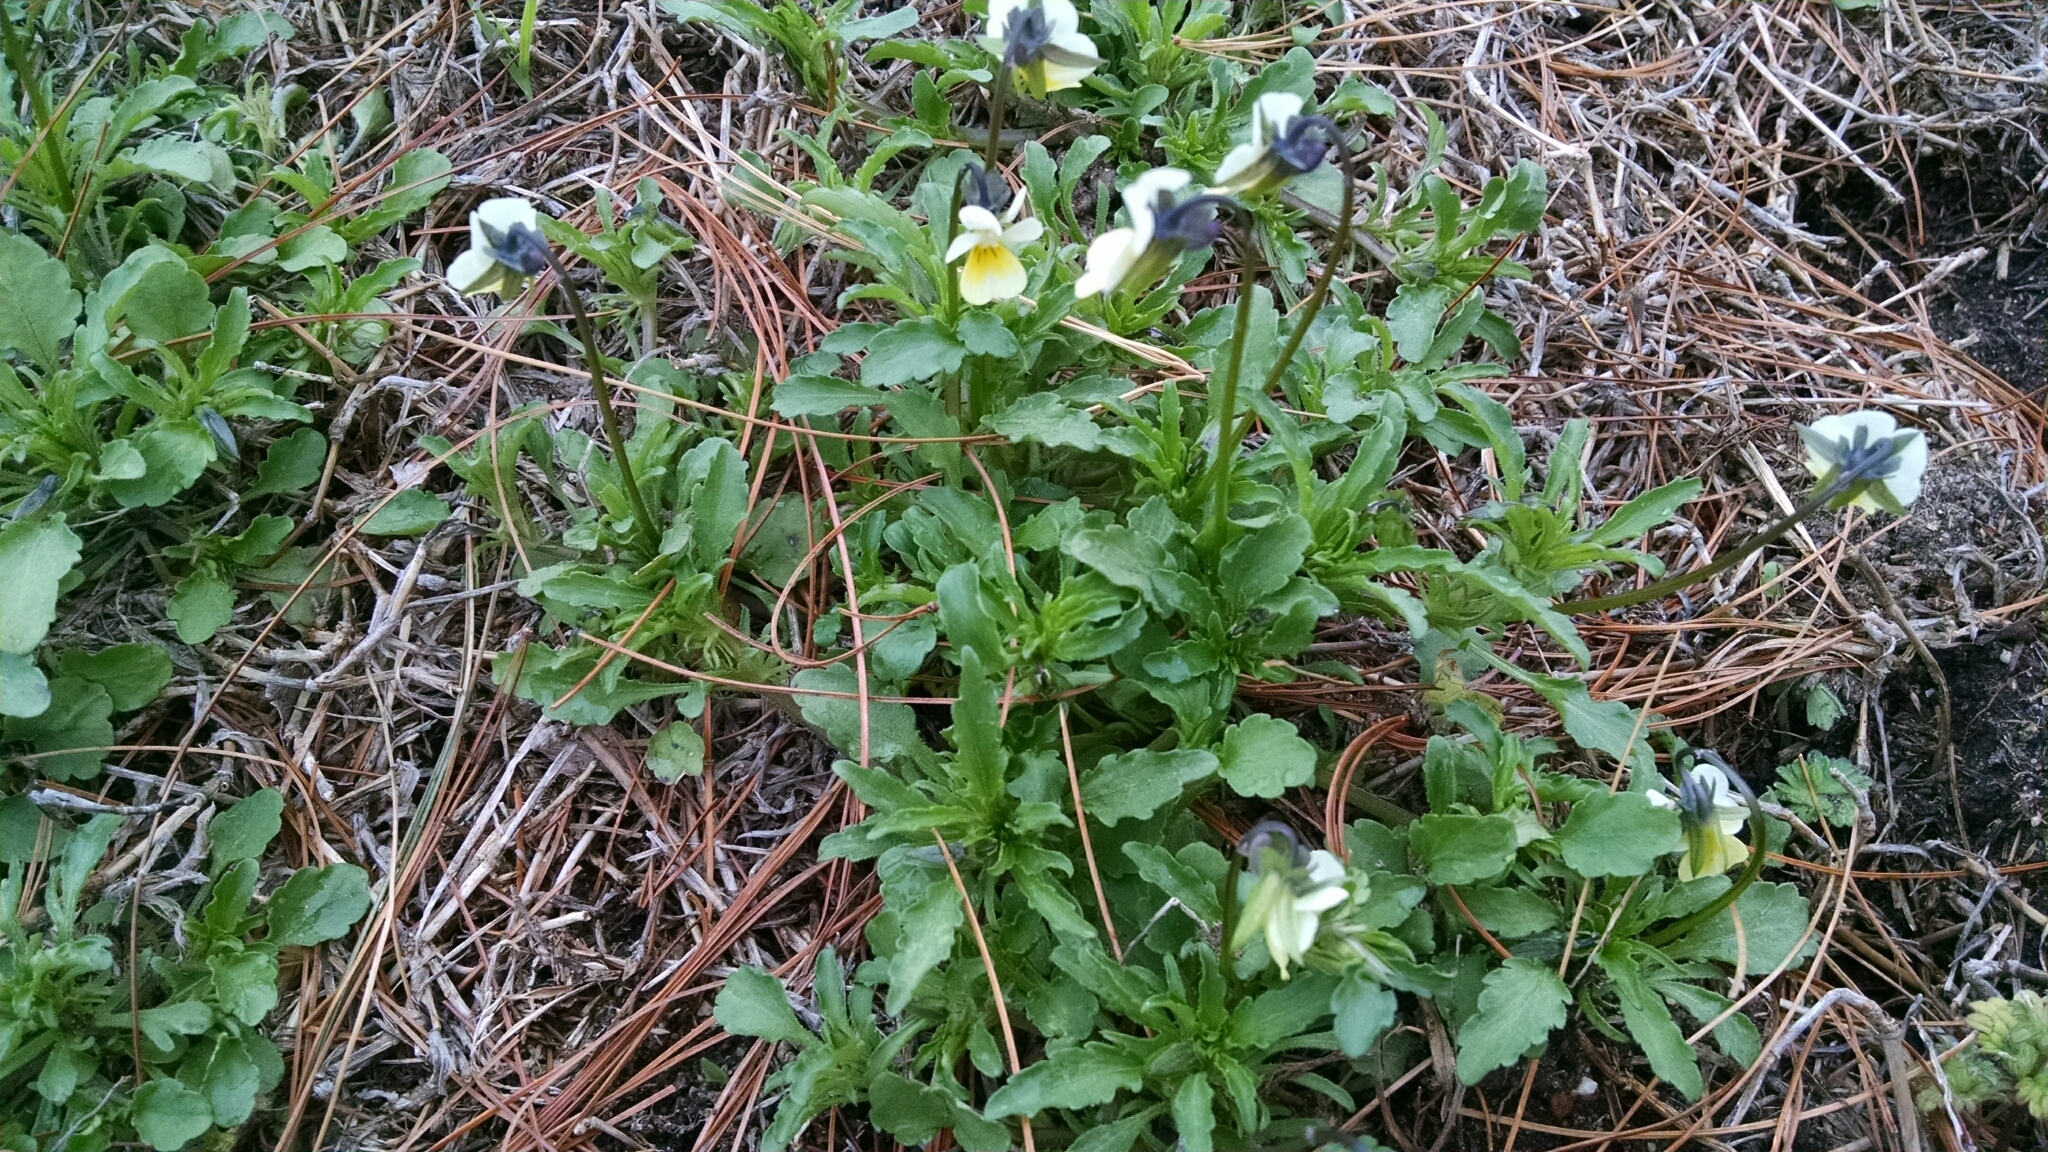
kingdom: Plantae
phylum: Tracheophyta
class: Magnoliopsida
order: Malpighiales
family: Violaceae
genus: Viola
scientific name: Viola arvensis
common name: Field pansy
